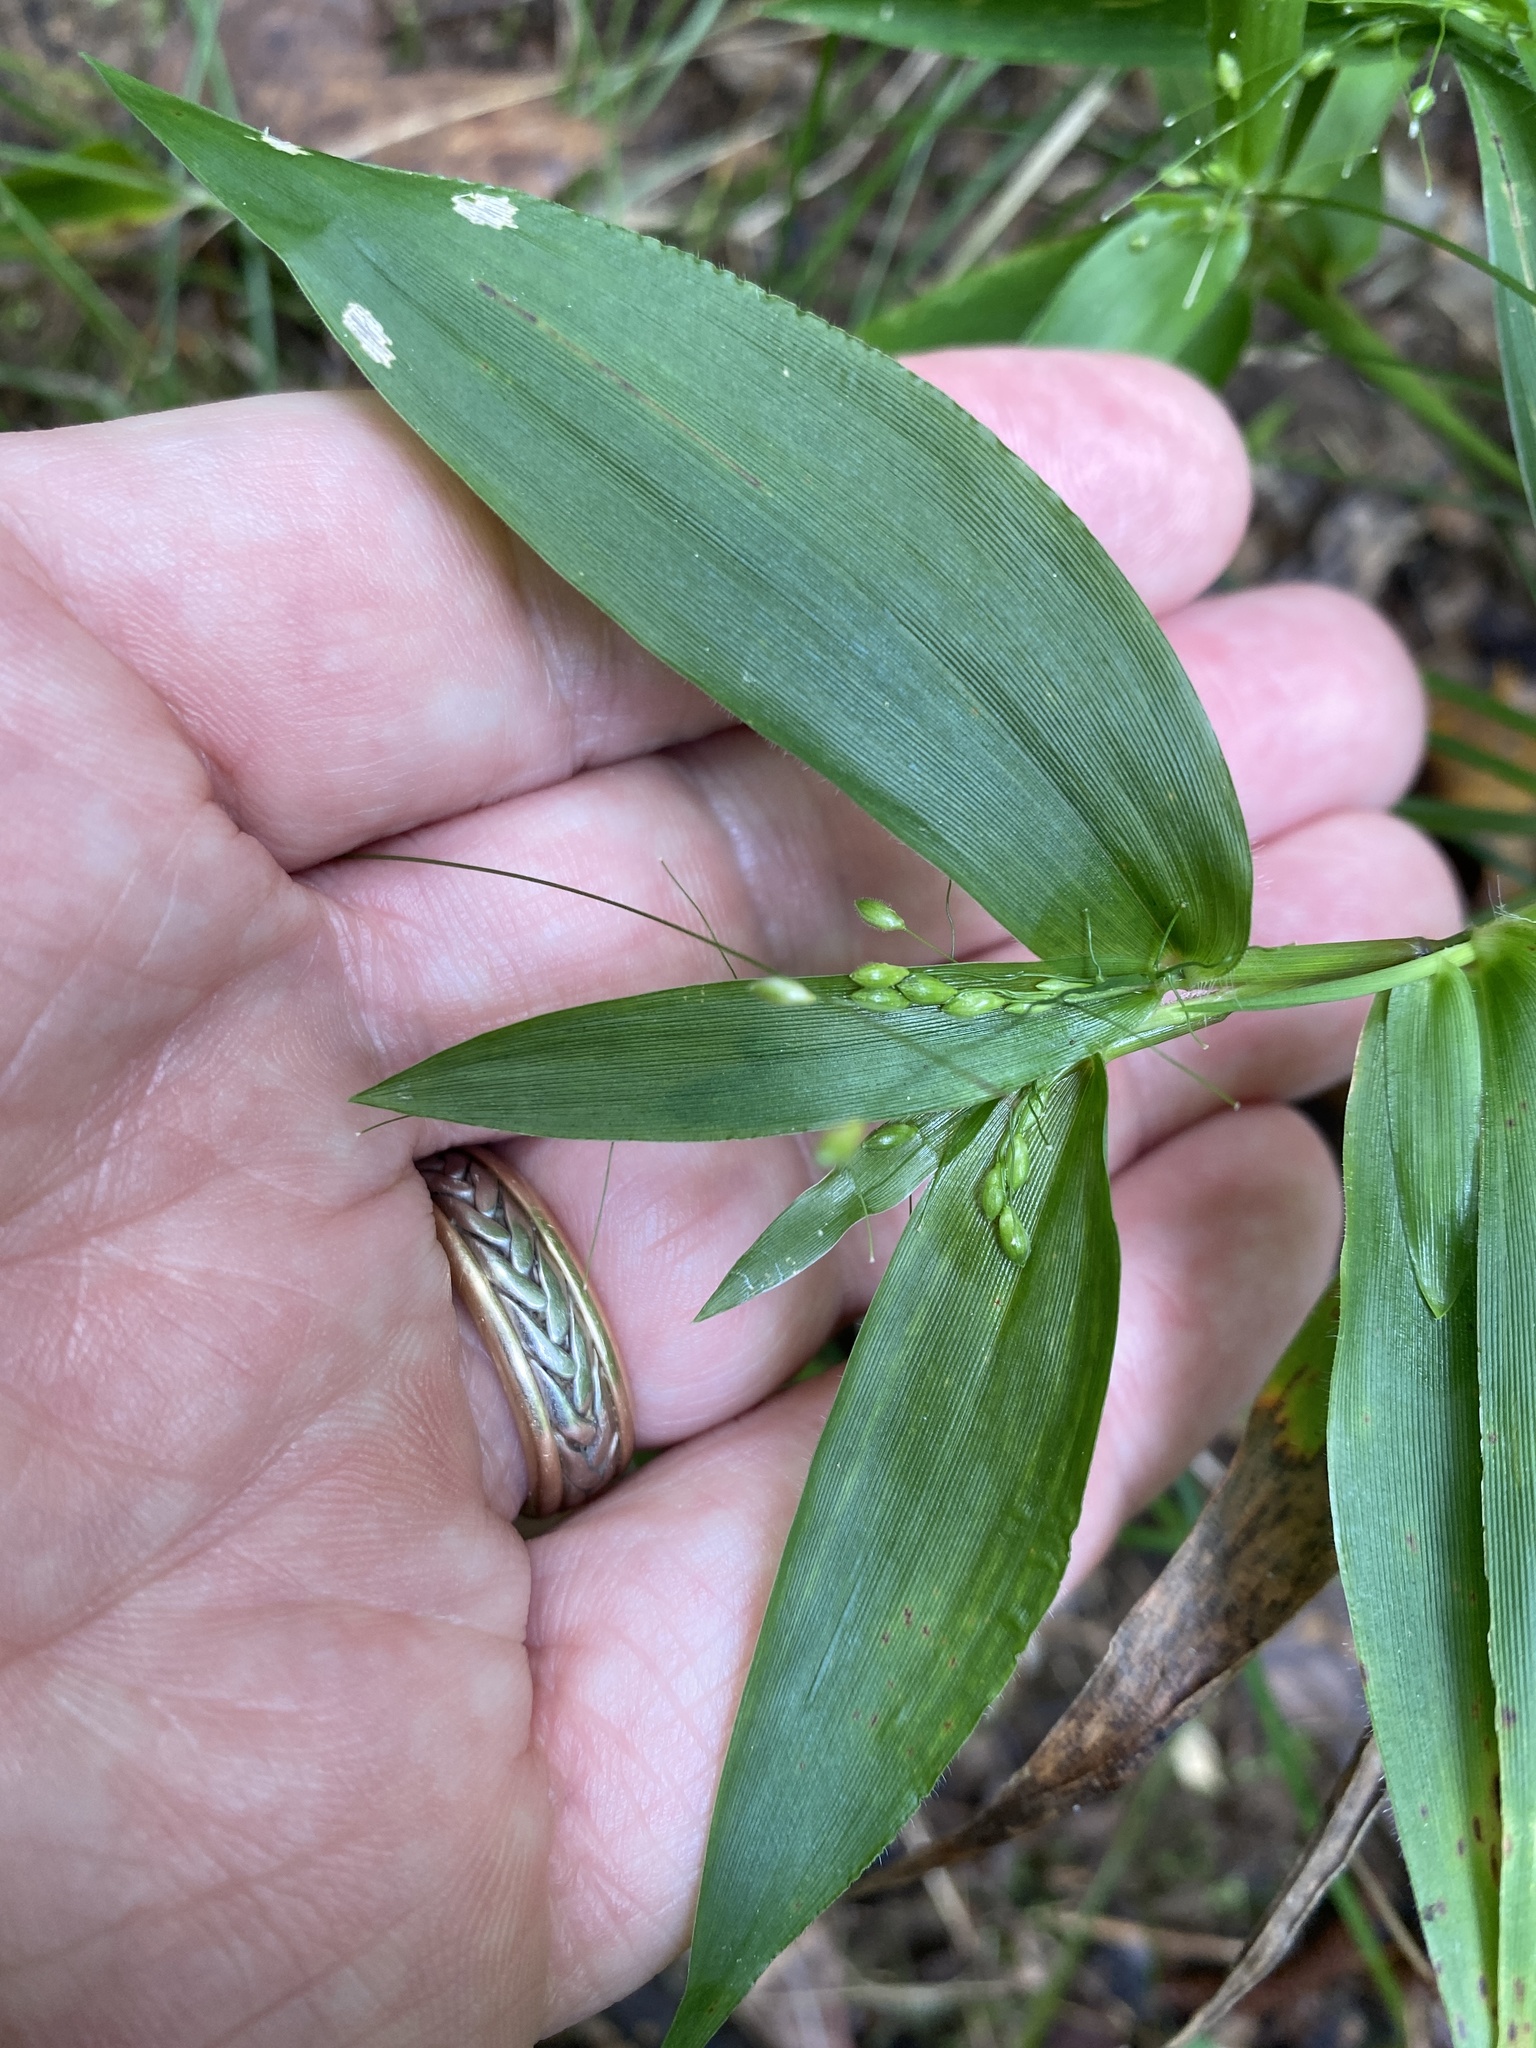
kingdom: Plantae
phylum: Tracheophyta
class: Liliopsida
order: Poales
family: Poaceae
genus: Dichanthelium
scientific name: Dichanthelium boscii
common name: Bosc's panic grass
